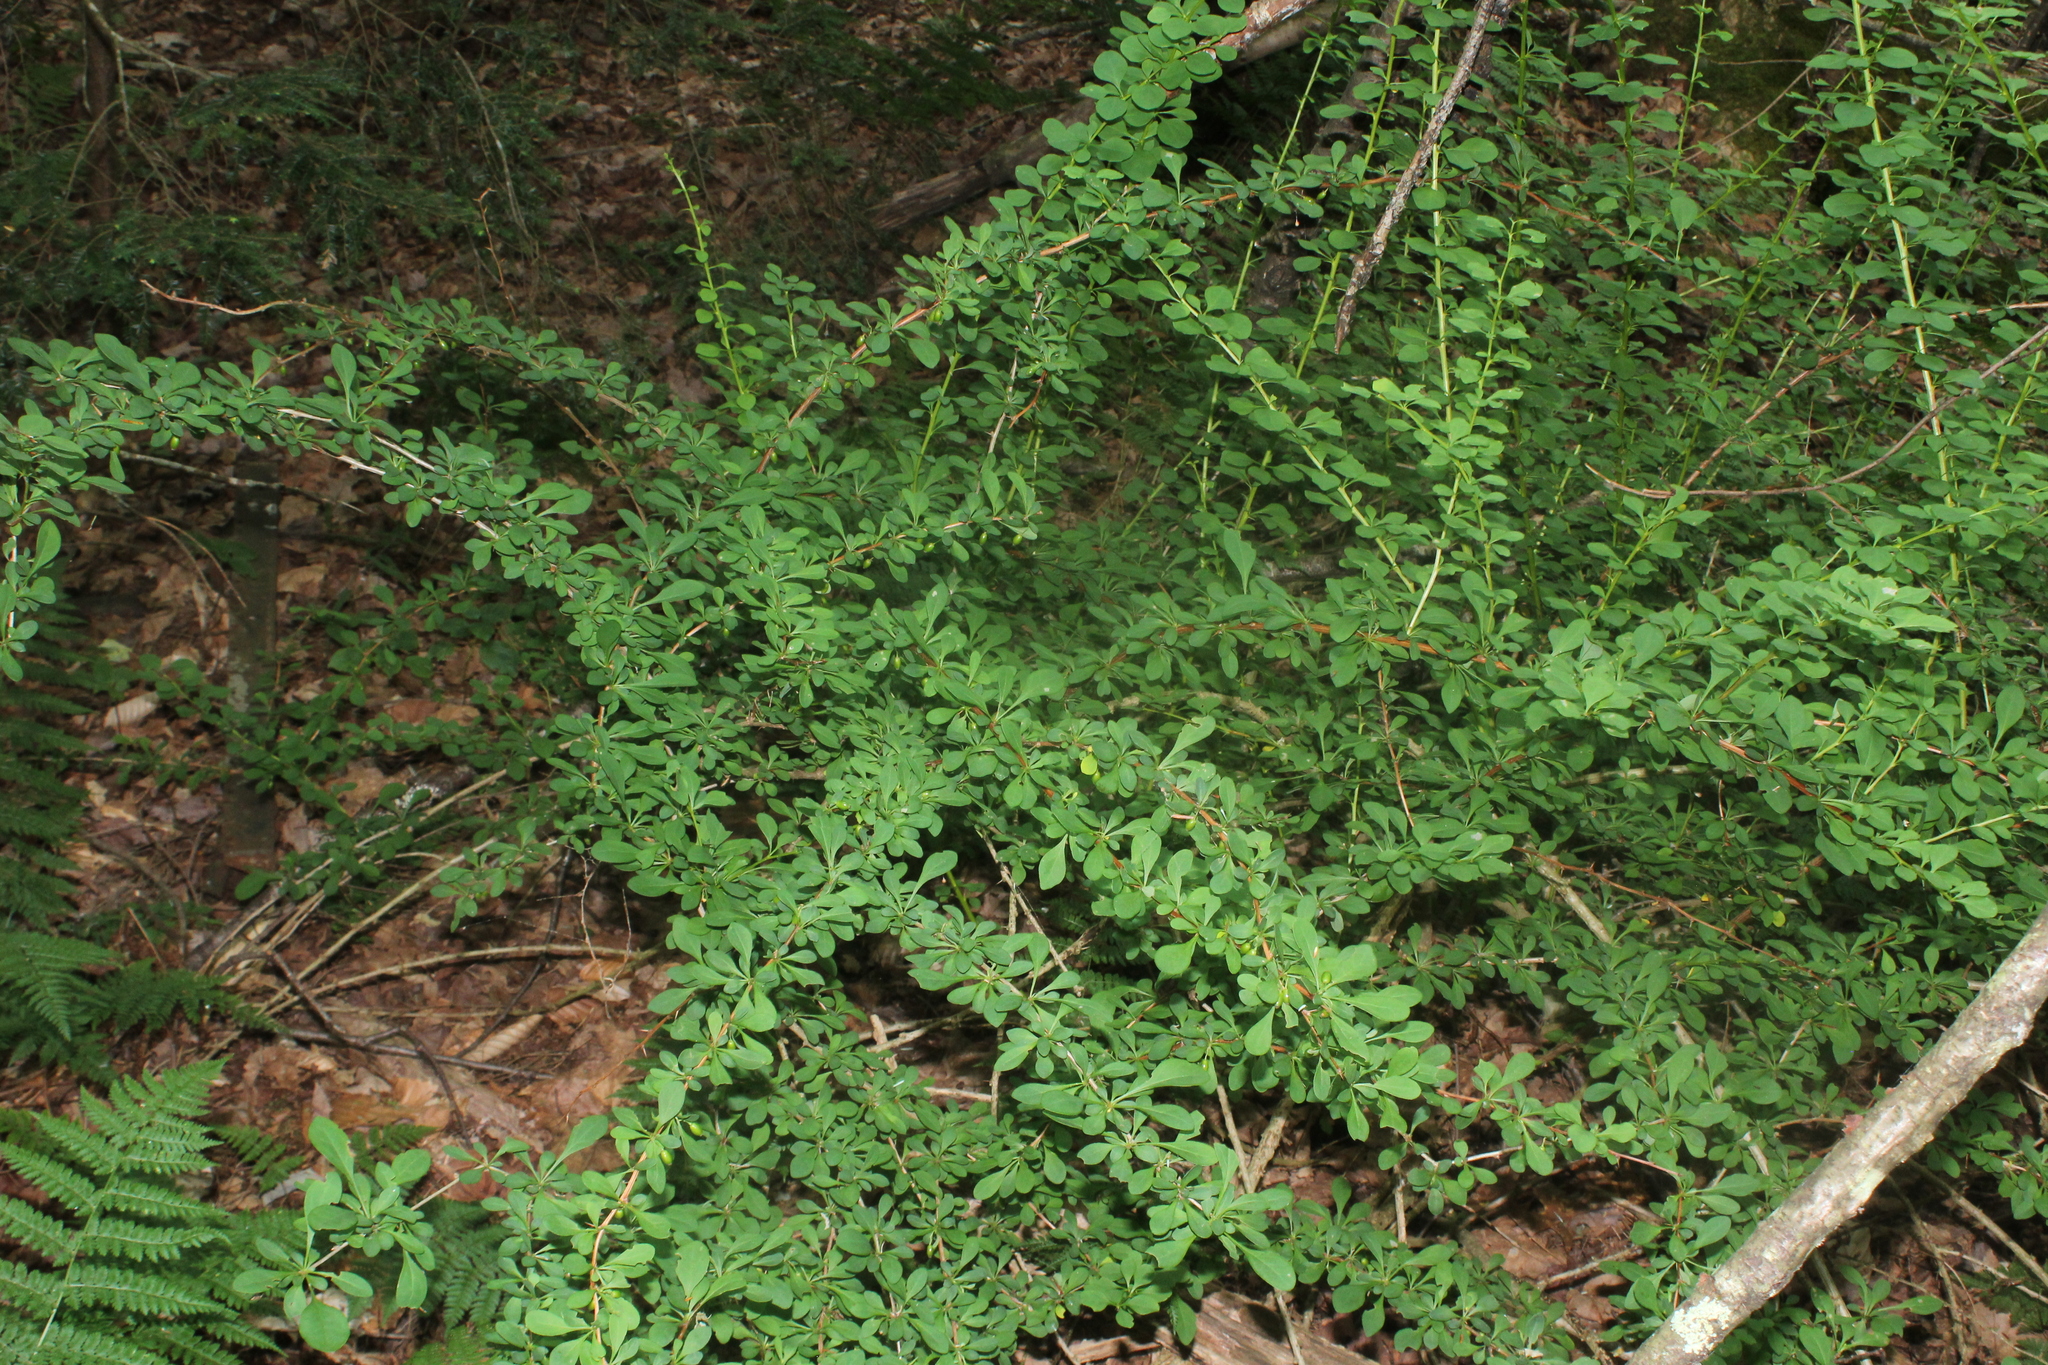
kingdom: Plantae
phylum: Tracheophyta
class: Magnoliopsida
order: Ranunculales
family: Berberidaceae
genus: Berberis
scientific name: Berberis thunbergii
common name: Japanese barberry
